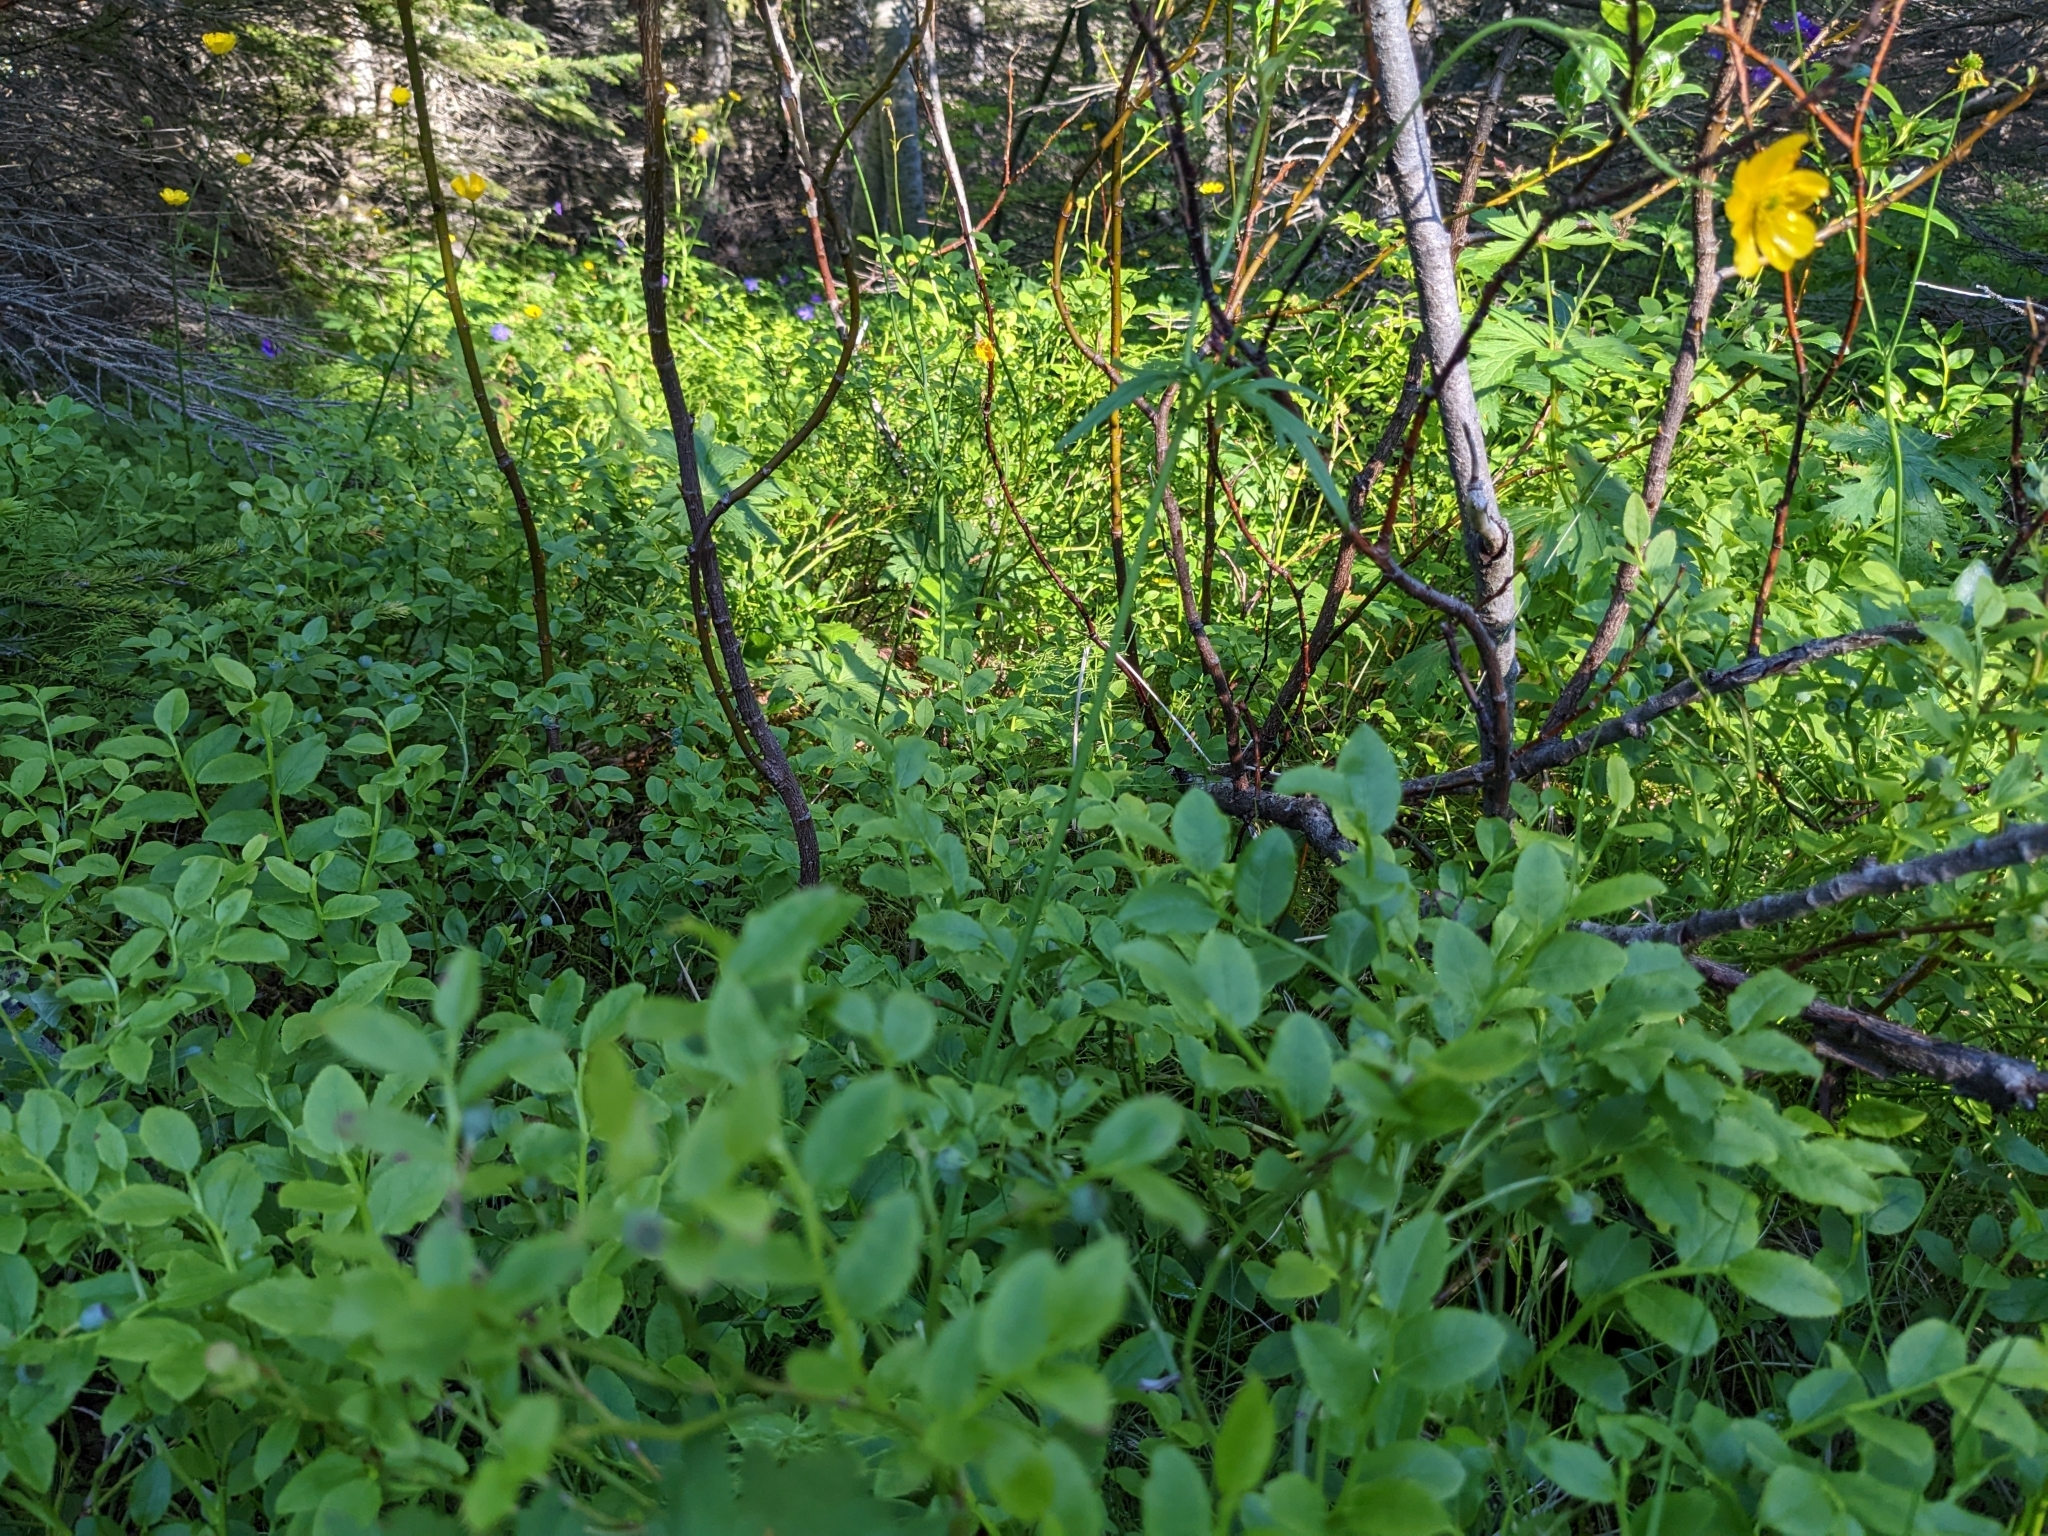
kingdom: Plantae
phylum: Tracheophyta
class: Magnoliopsida
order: Ericales
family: Ericaceae
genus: Vaccinium
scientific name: Vaccinium myrtillus
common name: Bilberry
